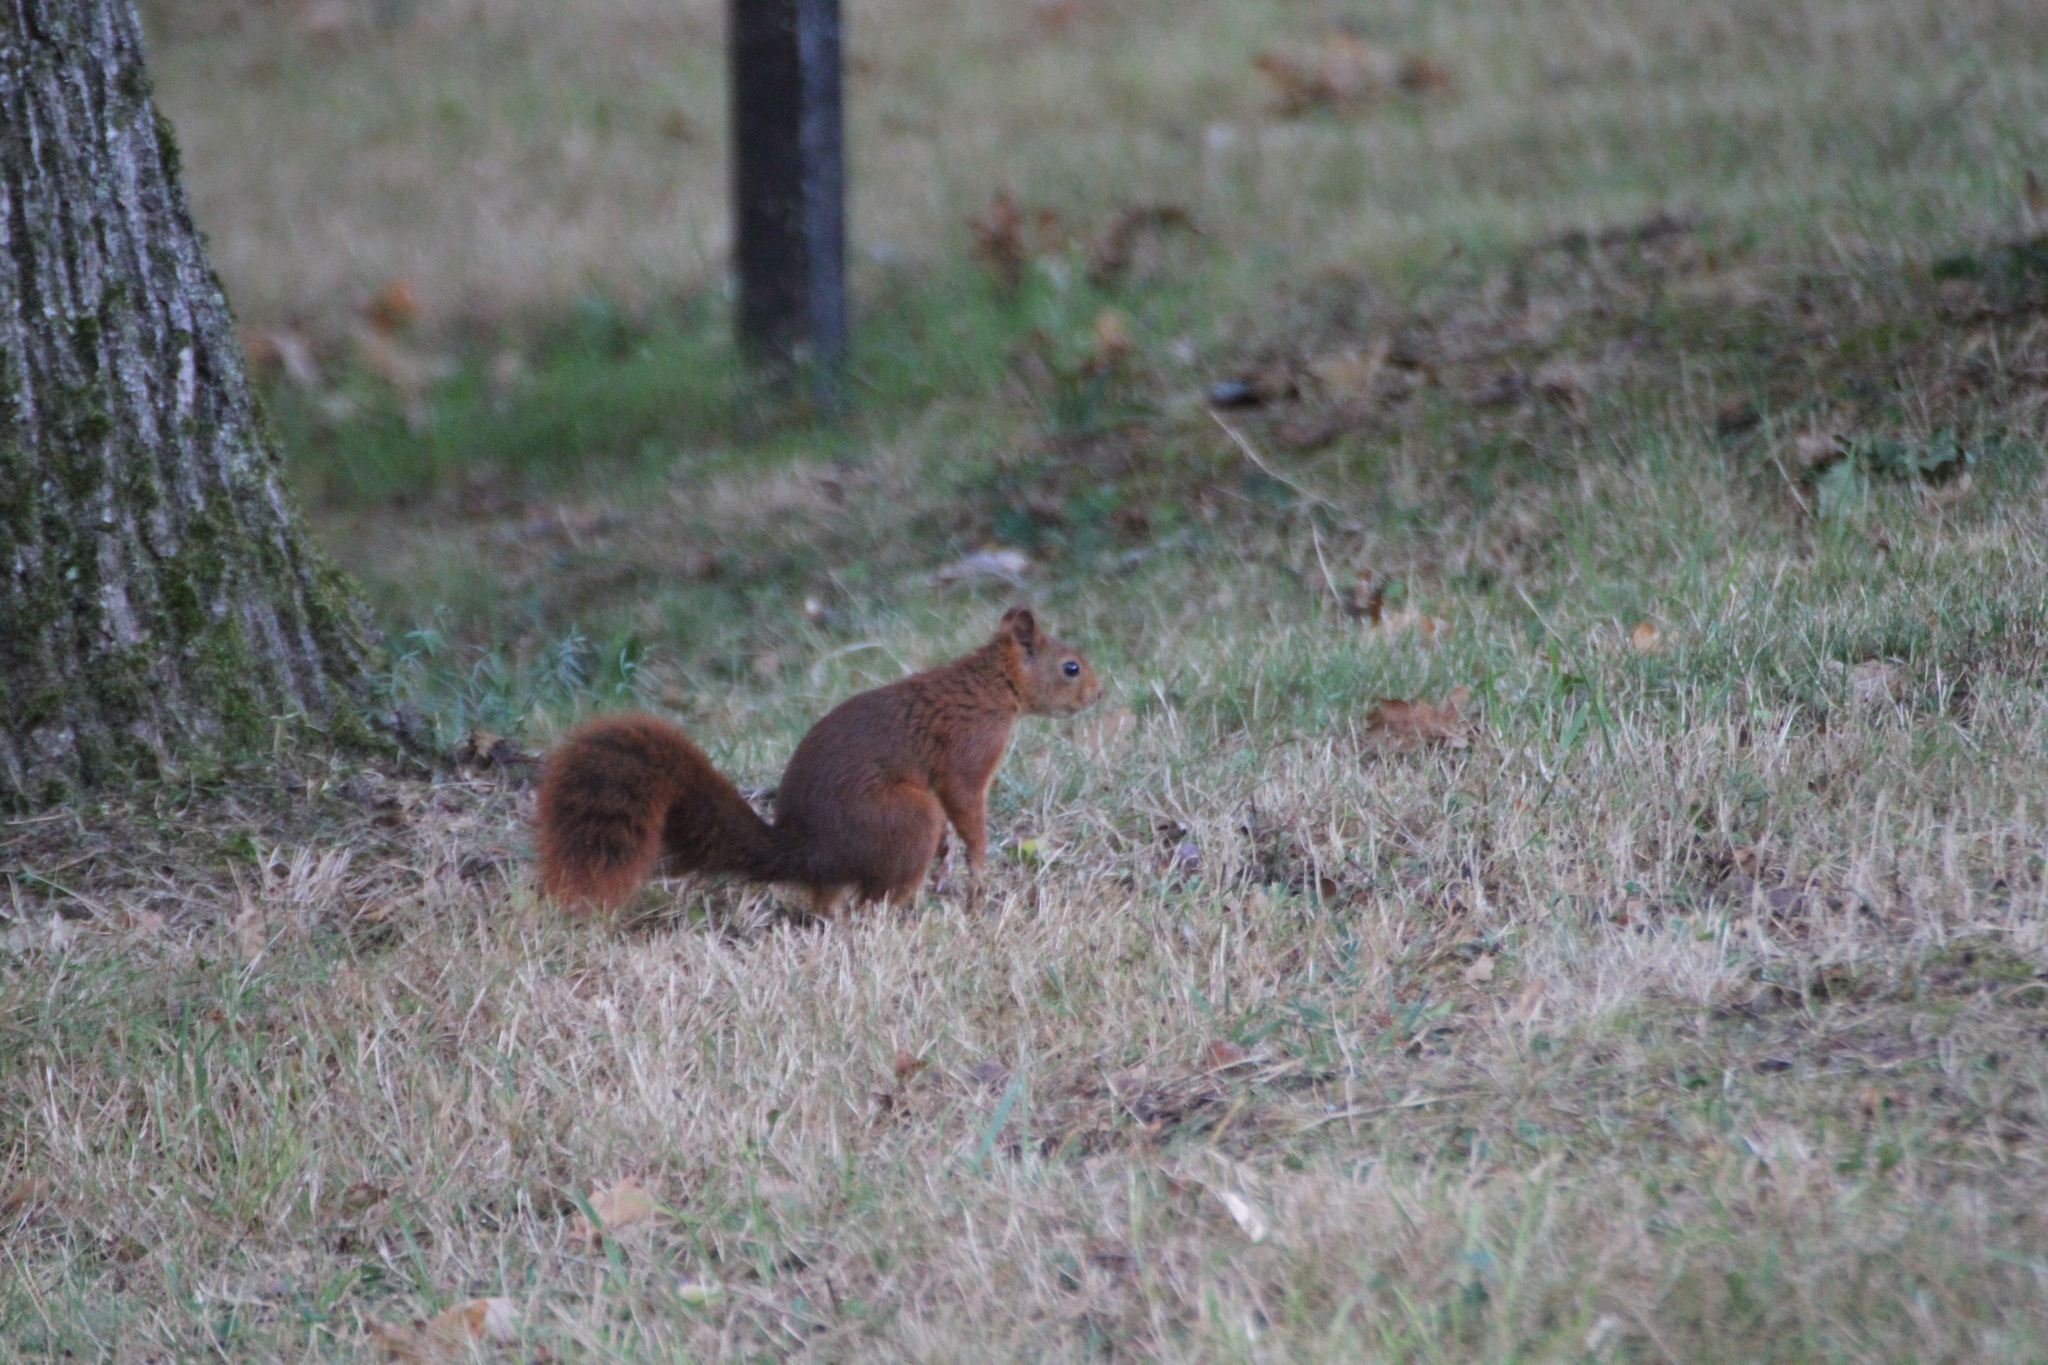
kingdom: Animalia
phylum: Chordata
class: Mammalia
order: Rodentia
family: Sciuridae
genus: Sciurus
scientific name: Sciurus vulgaris
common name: Eurasian red squirrel
